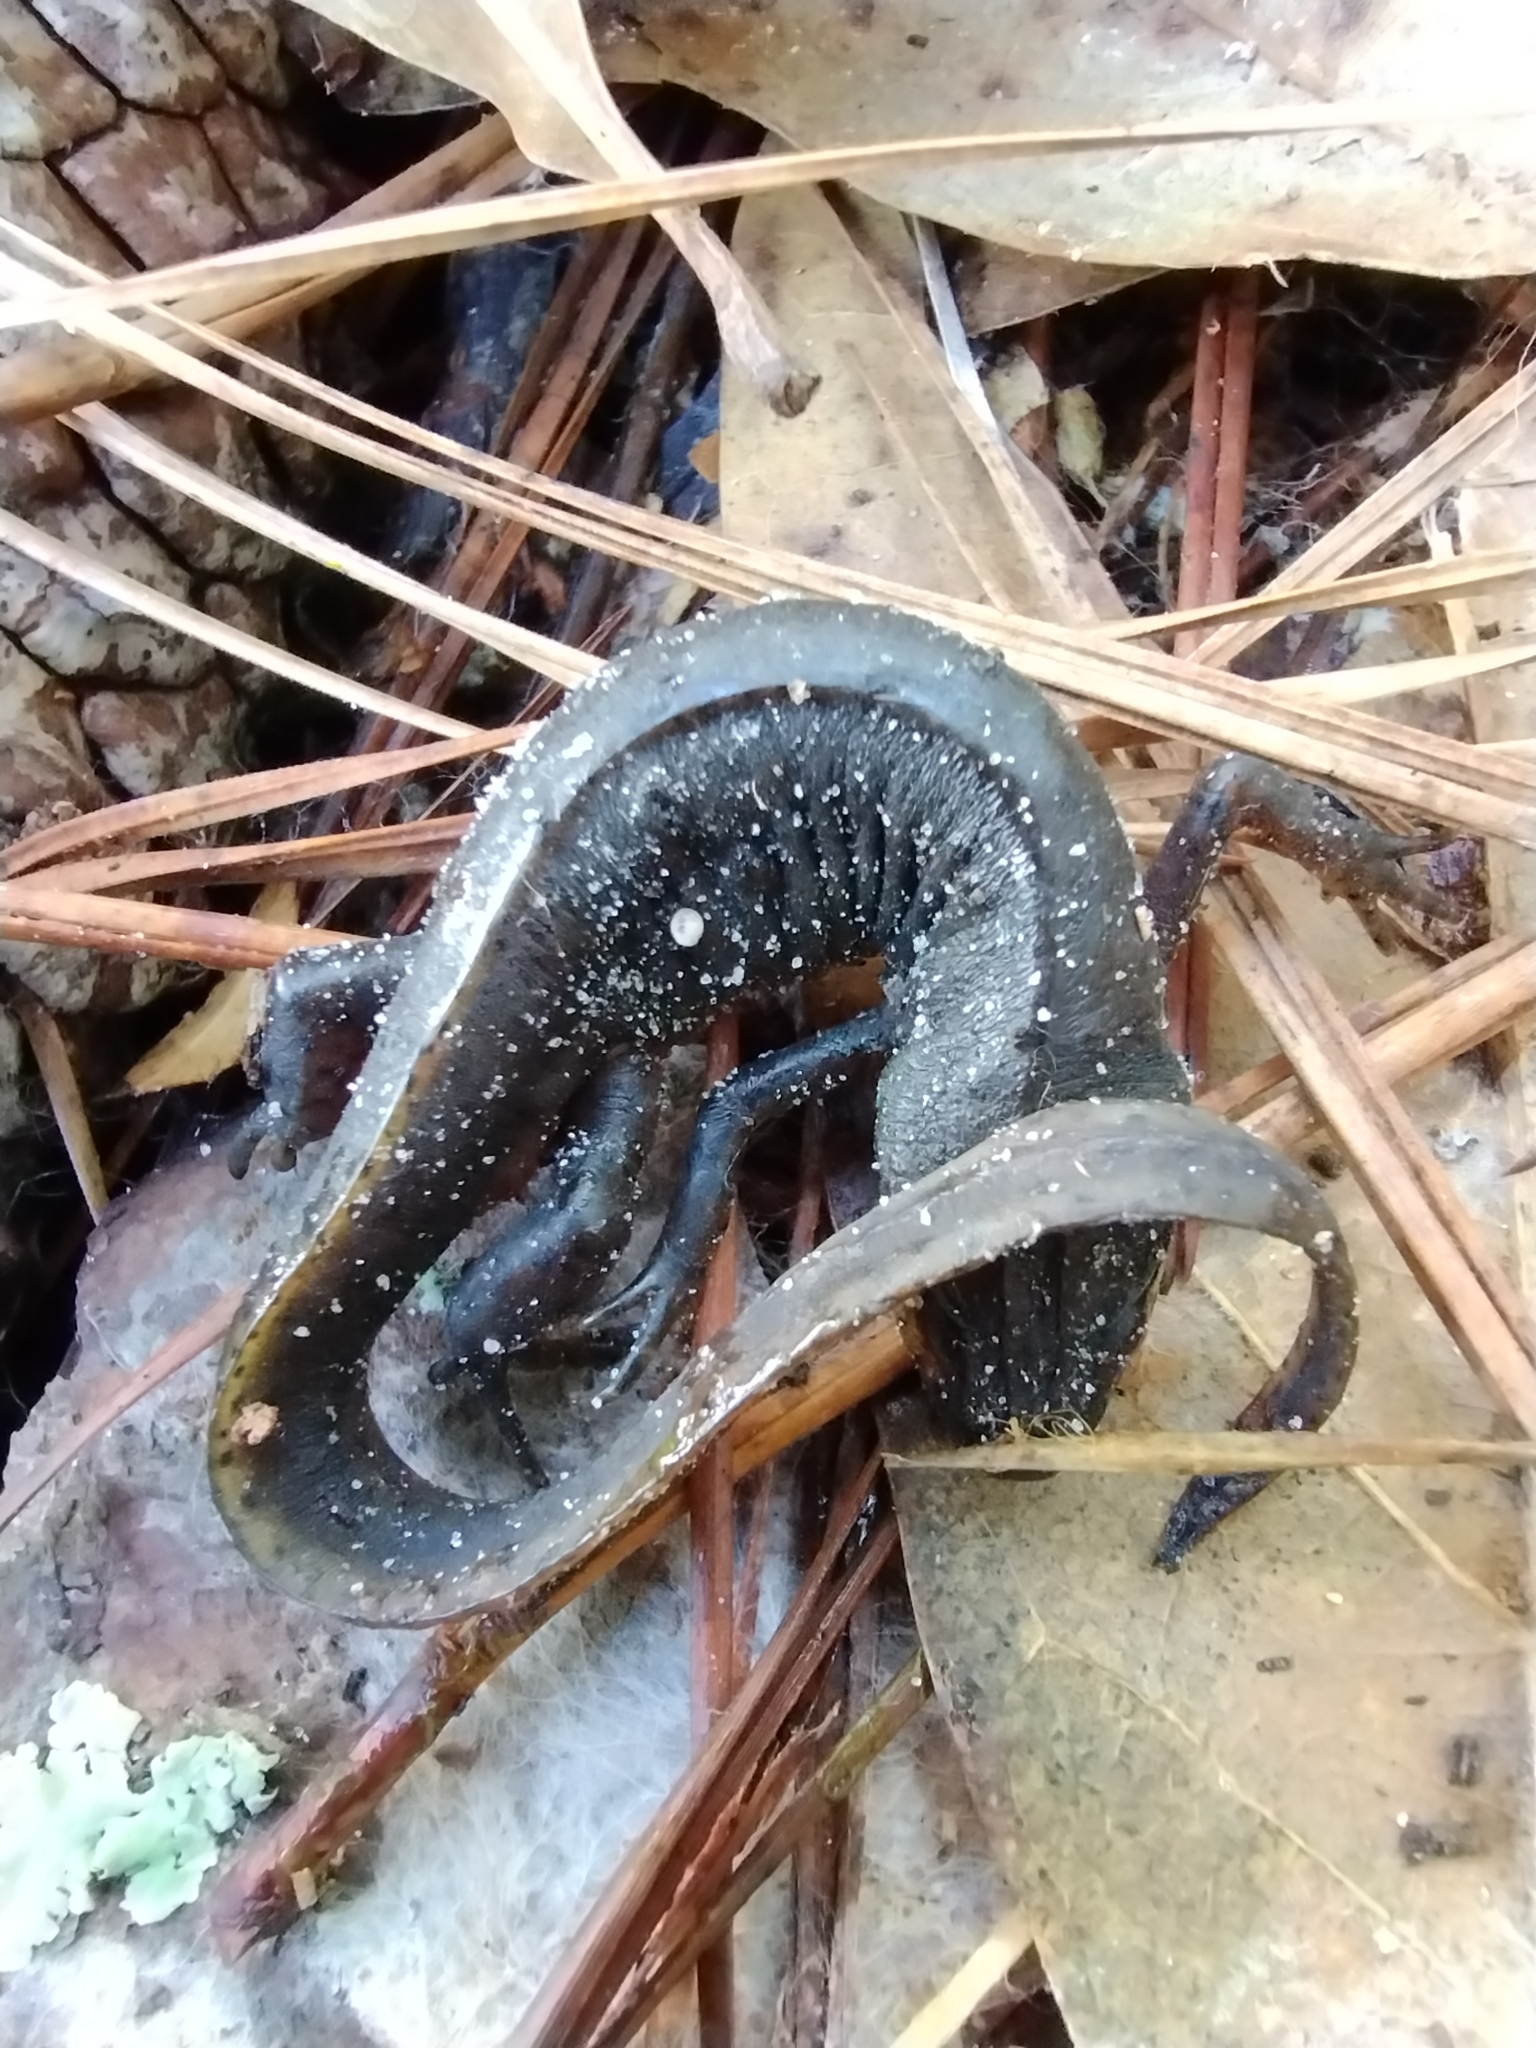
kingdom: Animalia
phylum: Chordata
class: Amphibia
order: Caudata
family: Salamandridae
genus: Notophthalmus
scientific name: Notophthalmus viridescens
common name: Eastern newt
